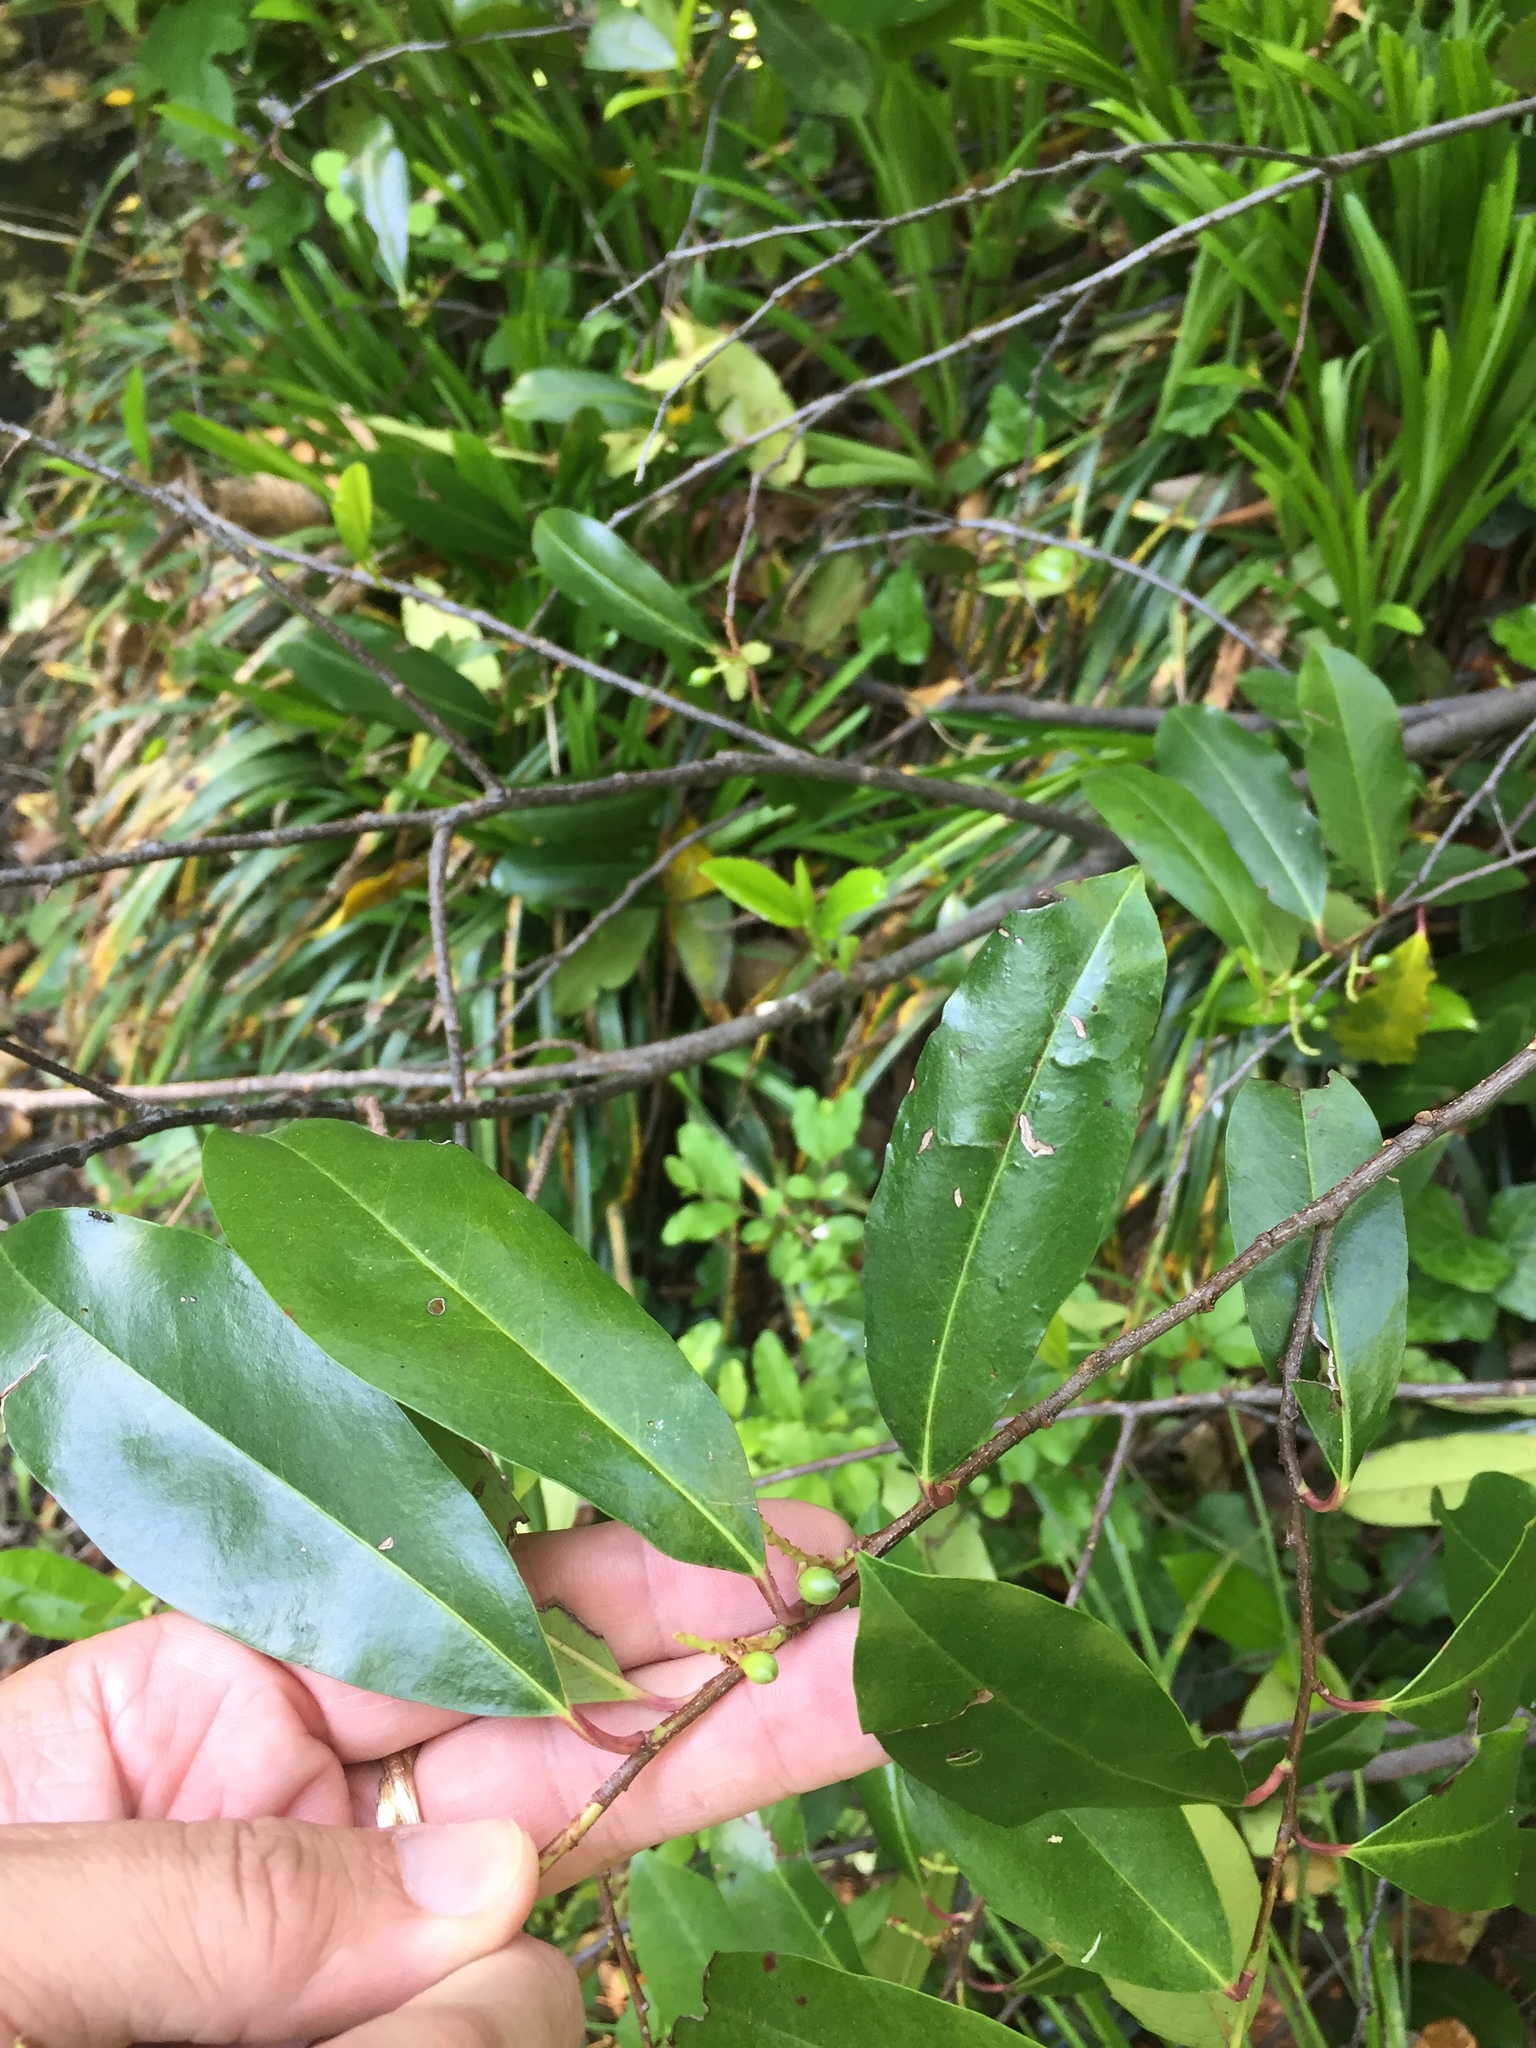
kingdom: Plantae
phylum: Tracheophyta
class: Magnoliopsida
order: Rosales
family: Rosaceae
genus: Prunus
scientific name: Prunus caroliniana
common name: Carolina laurel cherry
